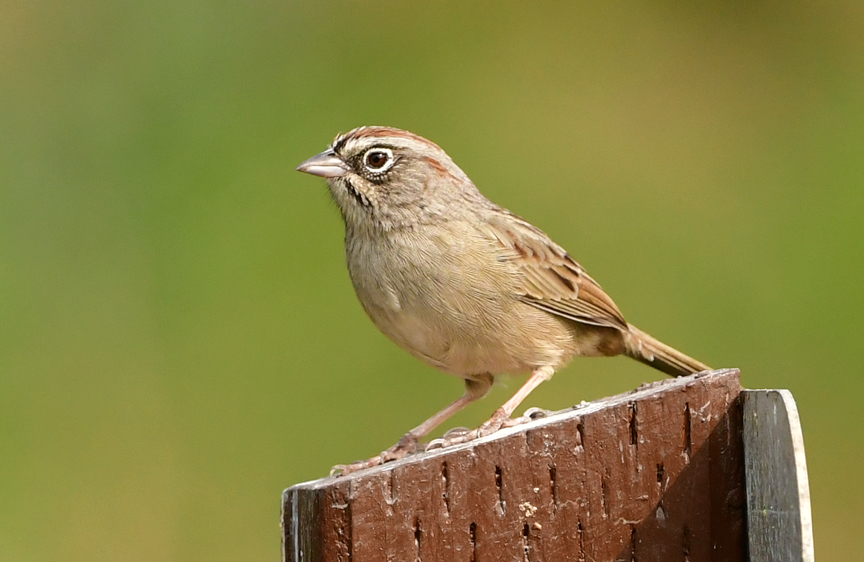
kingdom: Animalia
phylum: Chordata
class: Aves
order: Passeriformes
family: Passerellidae
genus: Aimophila
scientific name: Aimophila ruficeps
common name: Rufous-crowned sparrow
